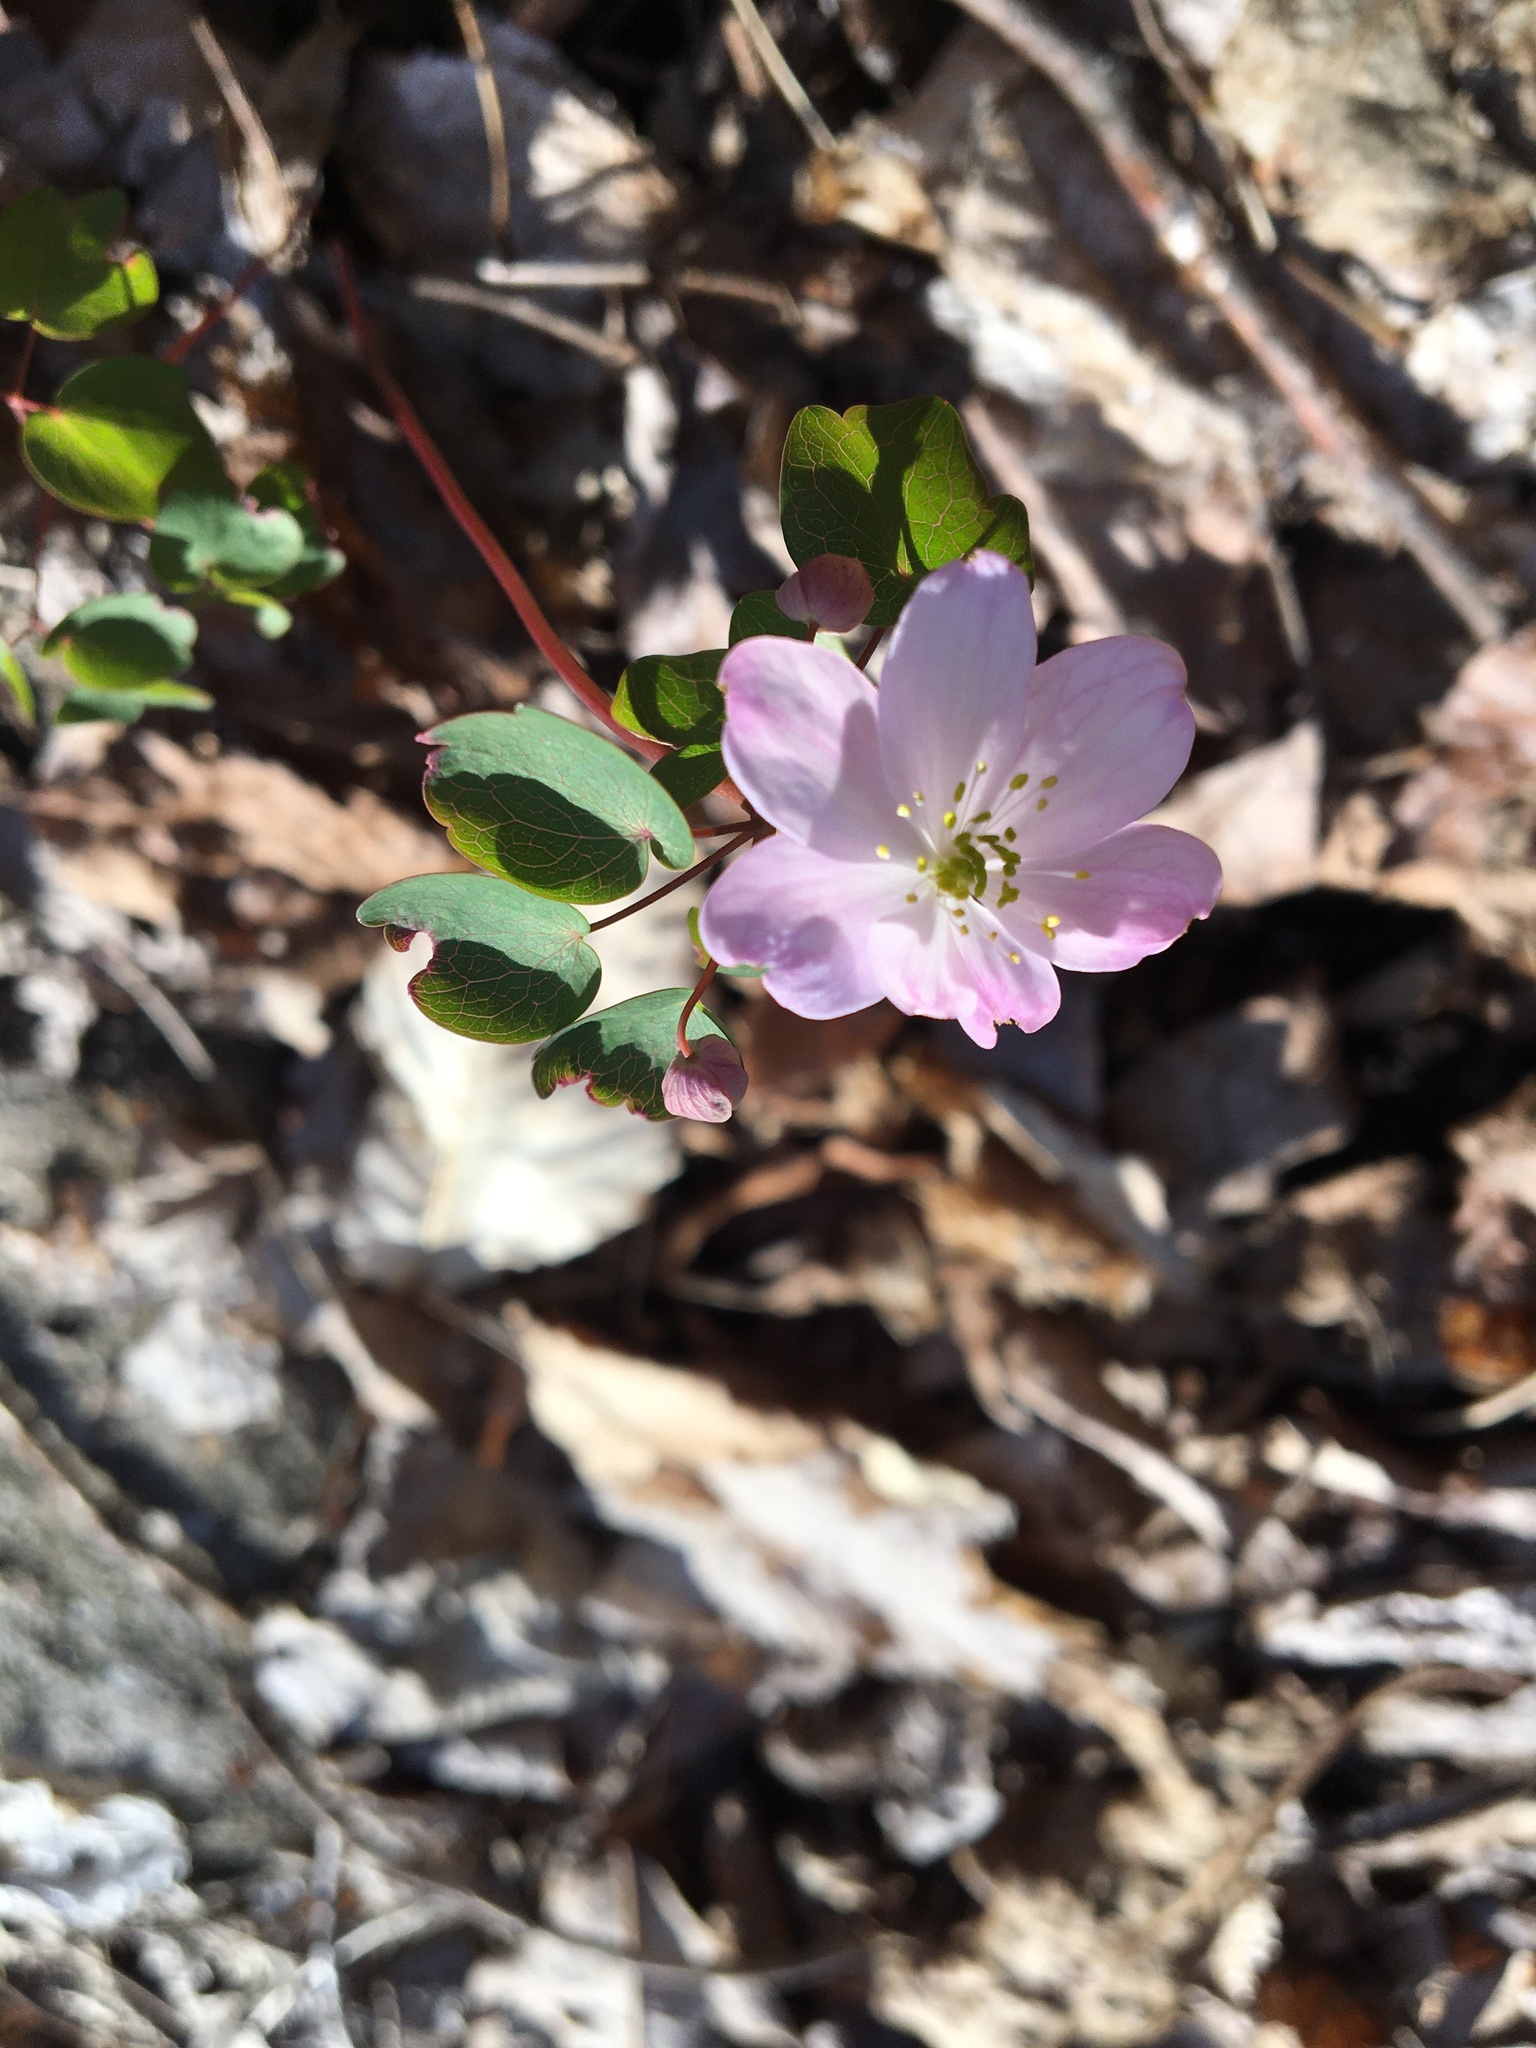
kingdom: Plantae
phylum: Tracheophyta
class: Magnoliopsida
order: Ranunculales
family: Ranunculaceae
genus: Thalictrum
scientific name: Thalictrum thalictroides
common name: Rue-anemone
